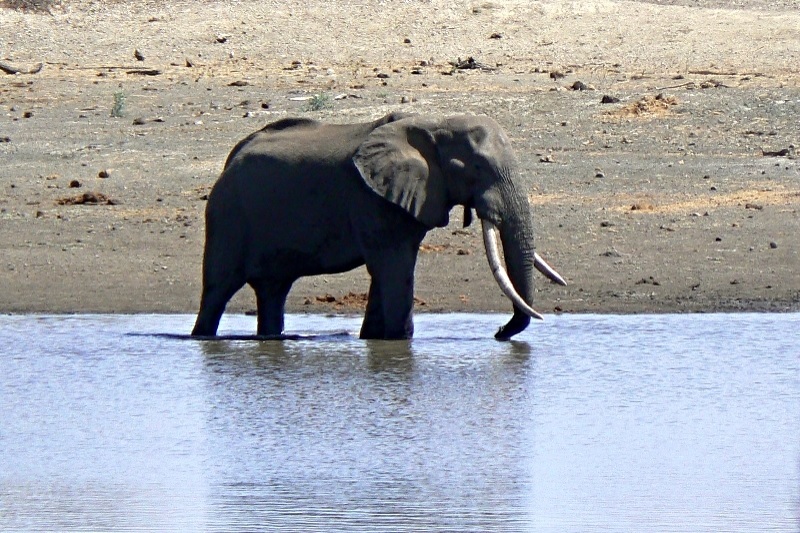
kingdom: Animalia
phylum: Chordata
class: Mammalia
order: Proboscidea
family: Elephantidae
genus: Loxodonta
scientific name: Loxodonta africana
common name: African elephant
